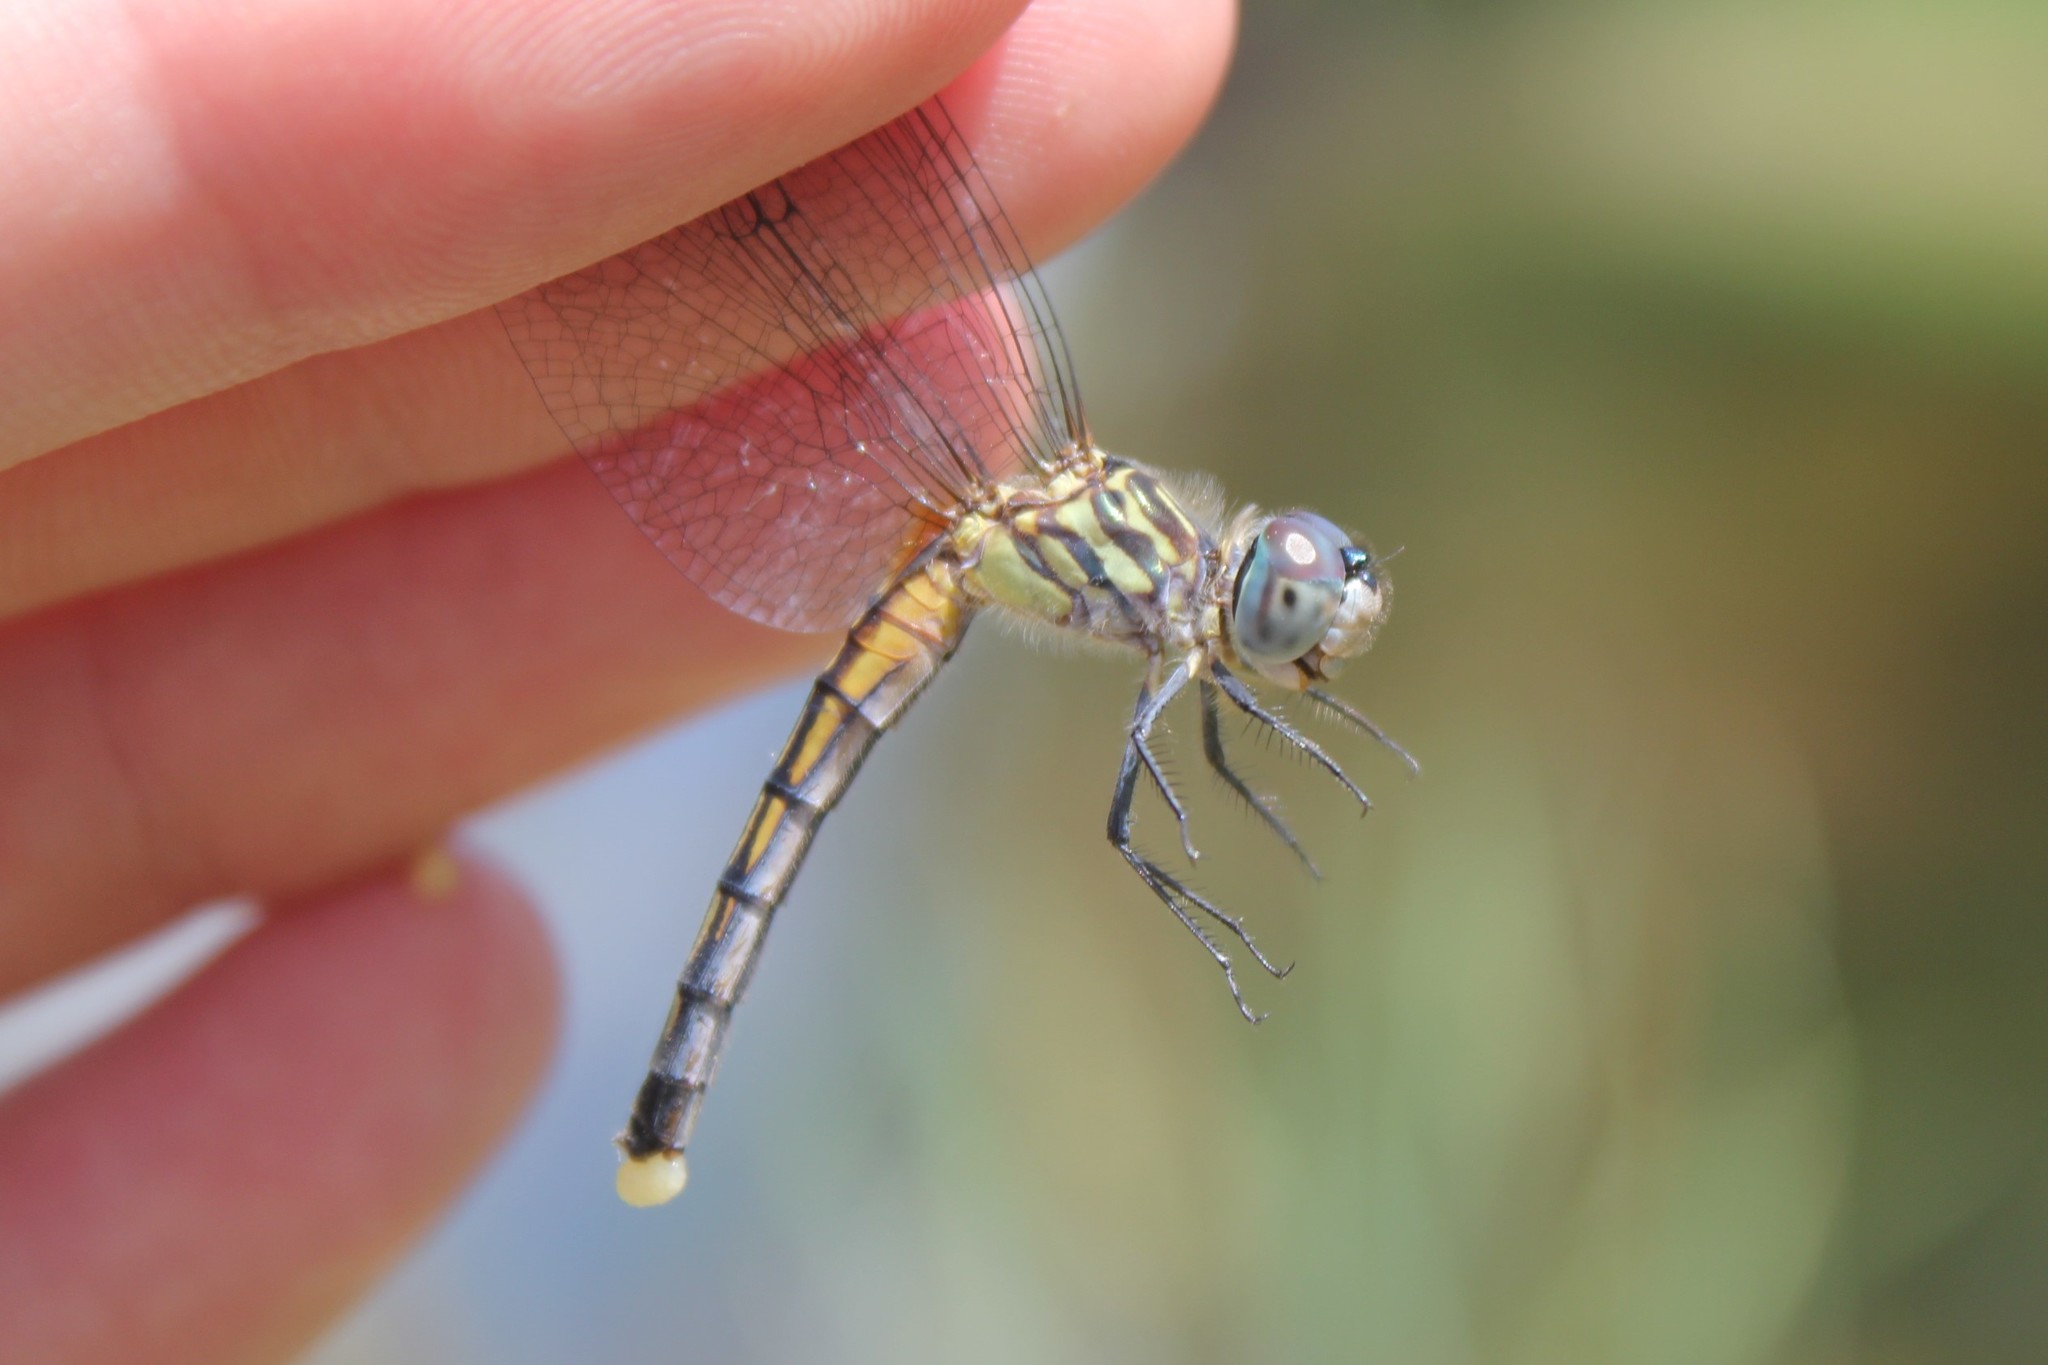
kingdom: Animalia
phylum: Arthropoda
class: Insecta
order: Odonata
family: Libellulidae
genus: Pachydiplax
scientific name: Pachydiplax longipennis
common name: Blue dasher
